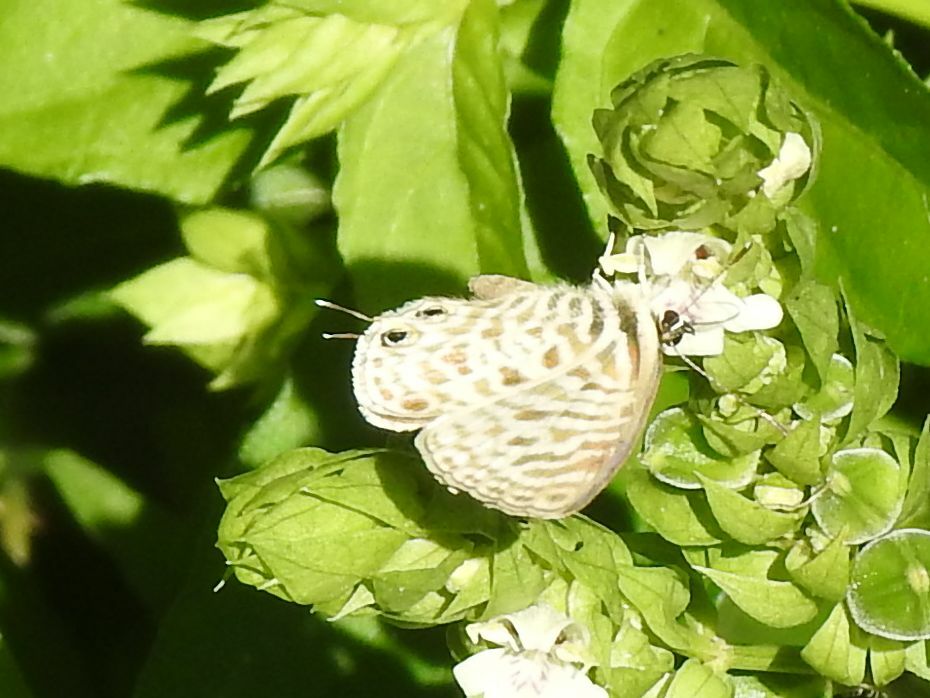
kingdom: Animalia
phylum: Arthropoda
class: Insecta
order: Lepidoptera
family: Lycaenidae
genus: Leptotes
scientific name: Leptotes
